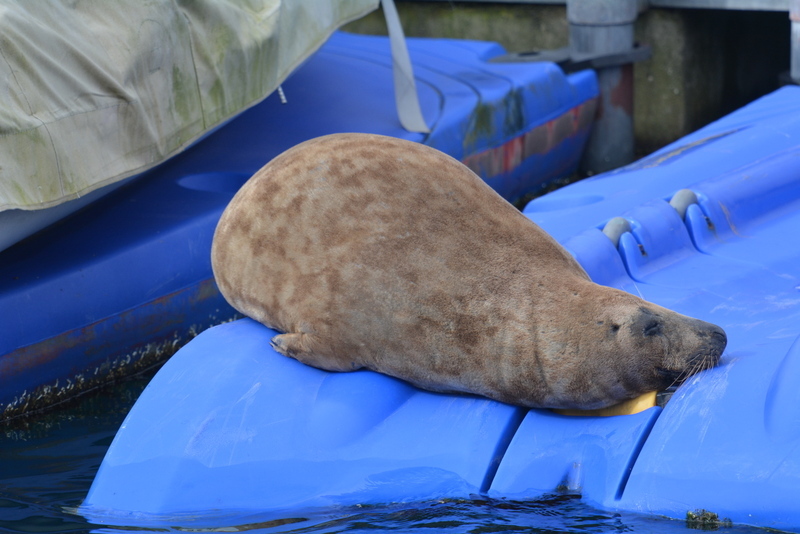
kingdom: Animalia
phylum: Chordata
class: Mammalia
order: Carnivora
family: Phocidae
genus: Halichoerus
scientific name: Halichoerus grypus
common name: Grey seal
